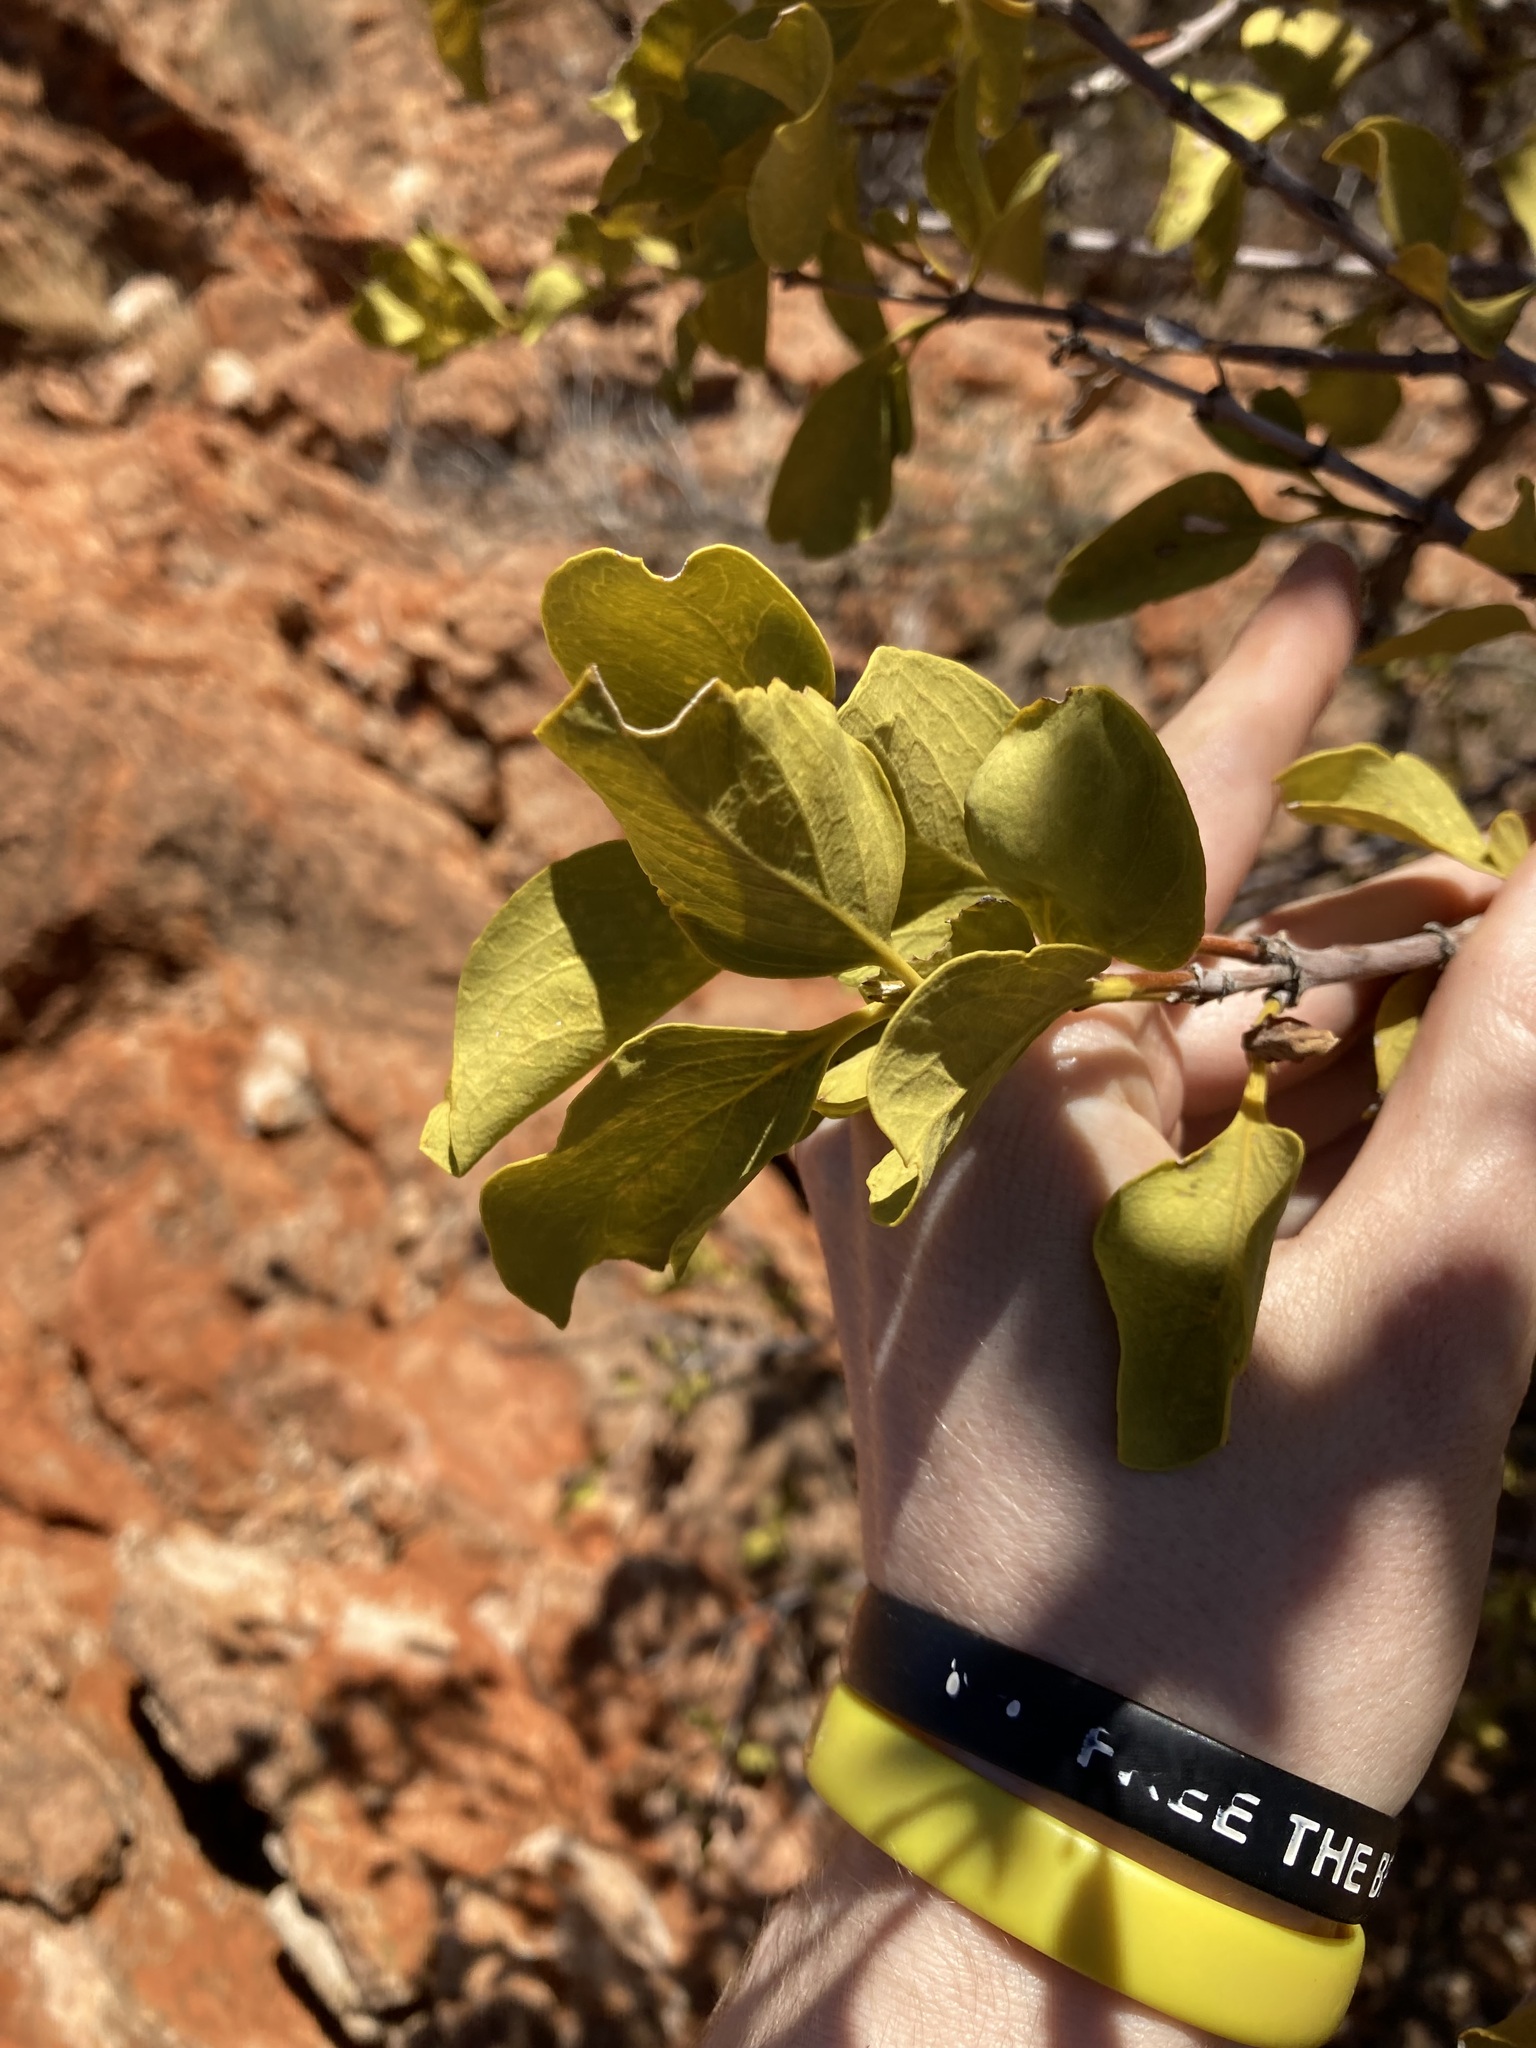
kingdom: Plantae
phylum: Tracheophyta
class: Magnoliopsida
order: Gentianales
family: Rubiaceae
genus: Psydrax
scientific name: Psydrax latifolius
